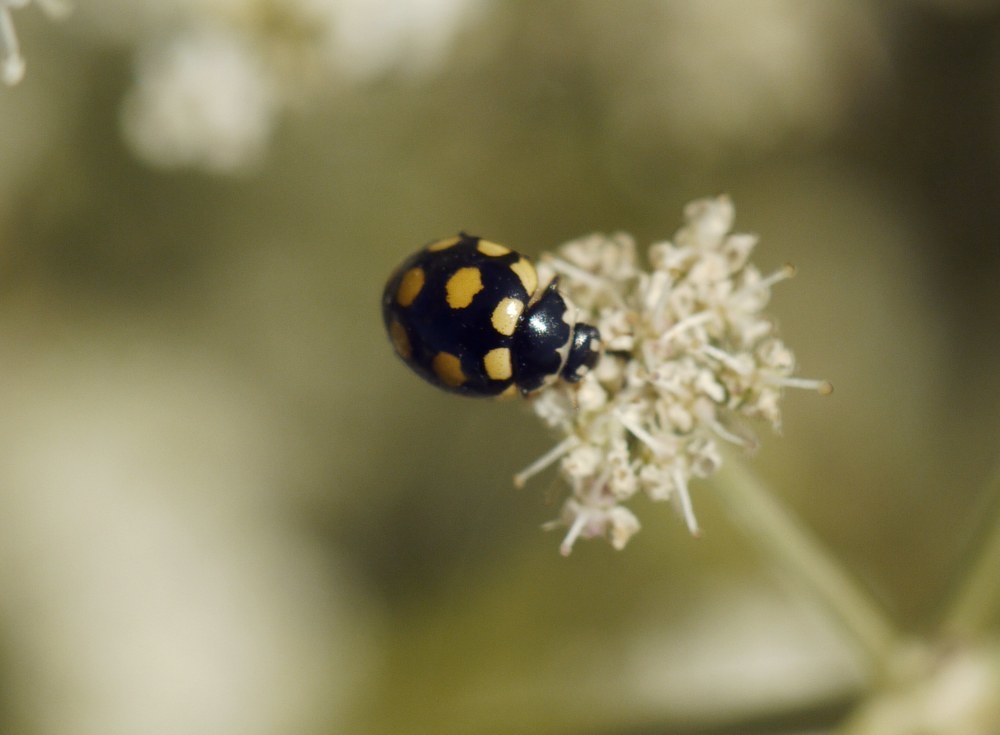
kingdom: Animalia
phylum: Arthropoda
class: Insecta
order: Coleoptera
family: Coccinellidae
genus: Coccinula
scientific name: Coccinula quatuordecimpustulata
